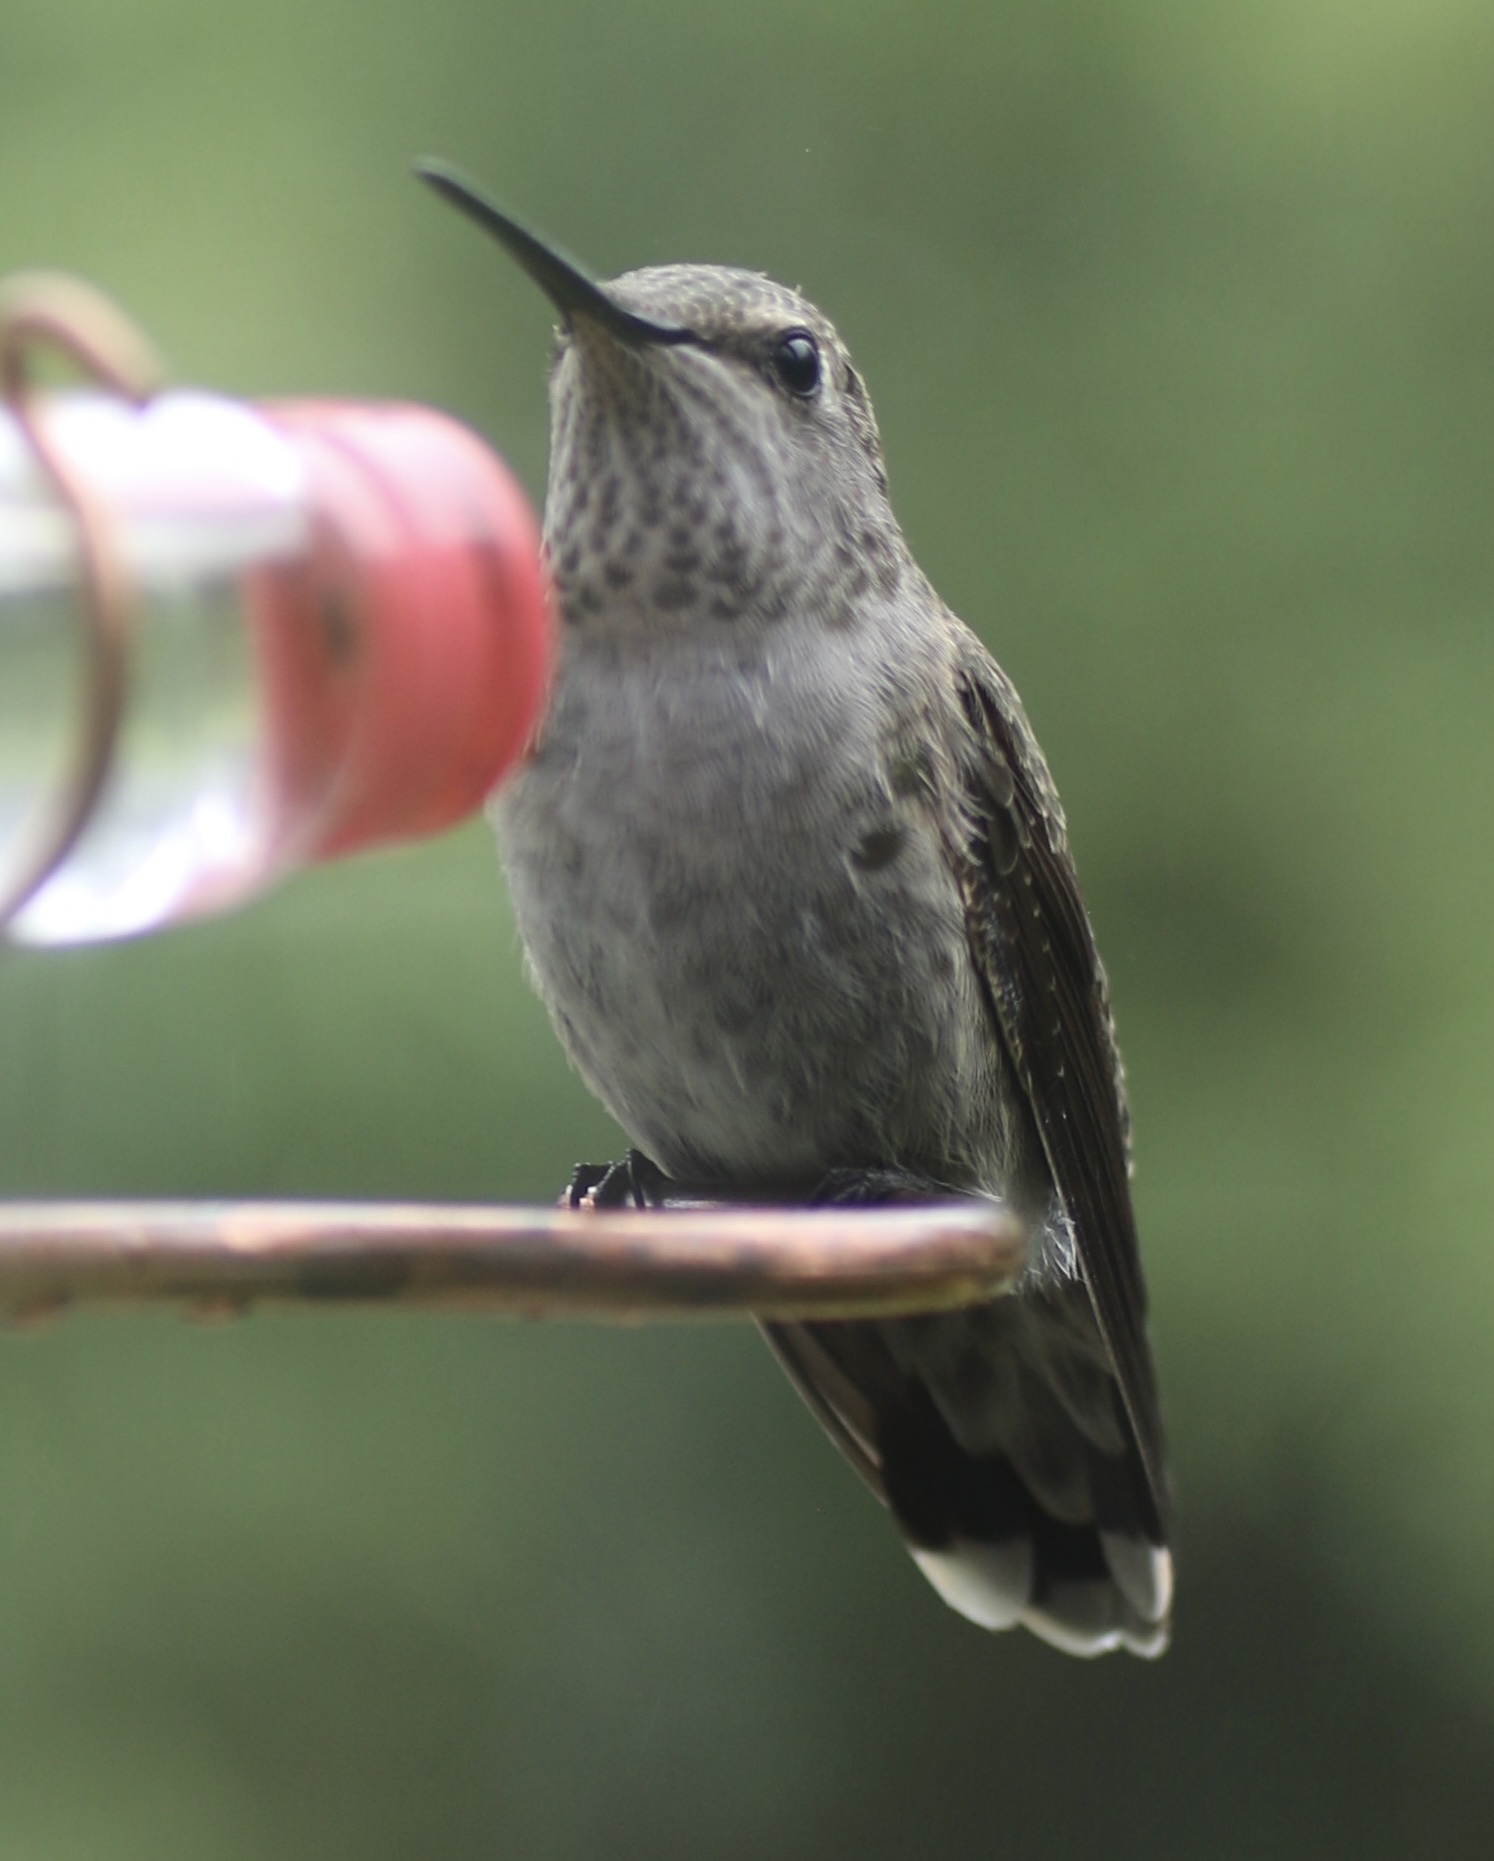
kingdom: Animalia
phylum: Chordata
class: Aves
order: Apodiformes
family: Trochilidae
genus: Calypte
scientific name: Calypte anna
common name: Anna's hummingbird
